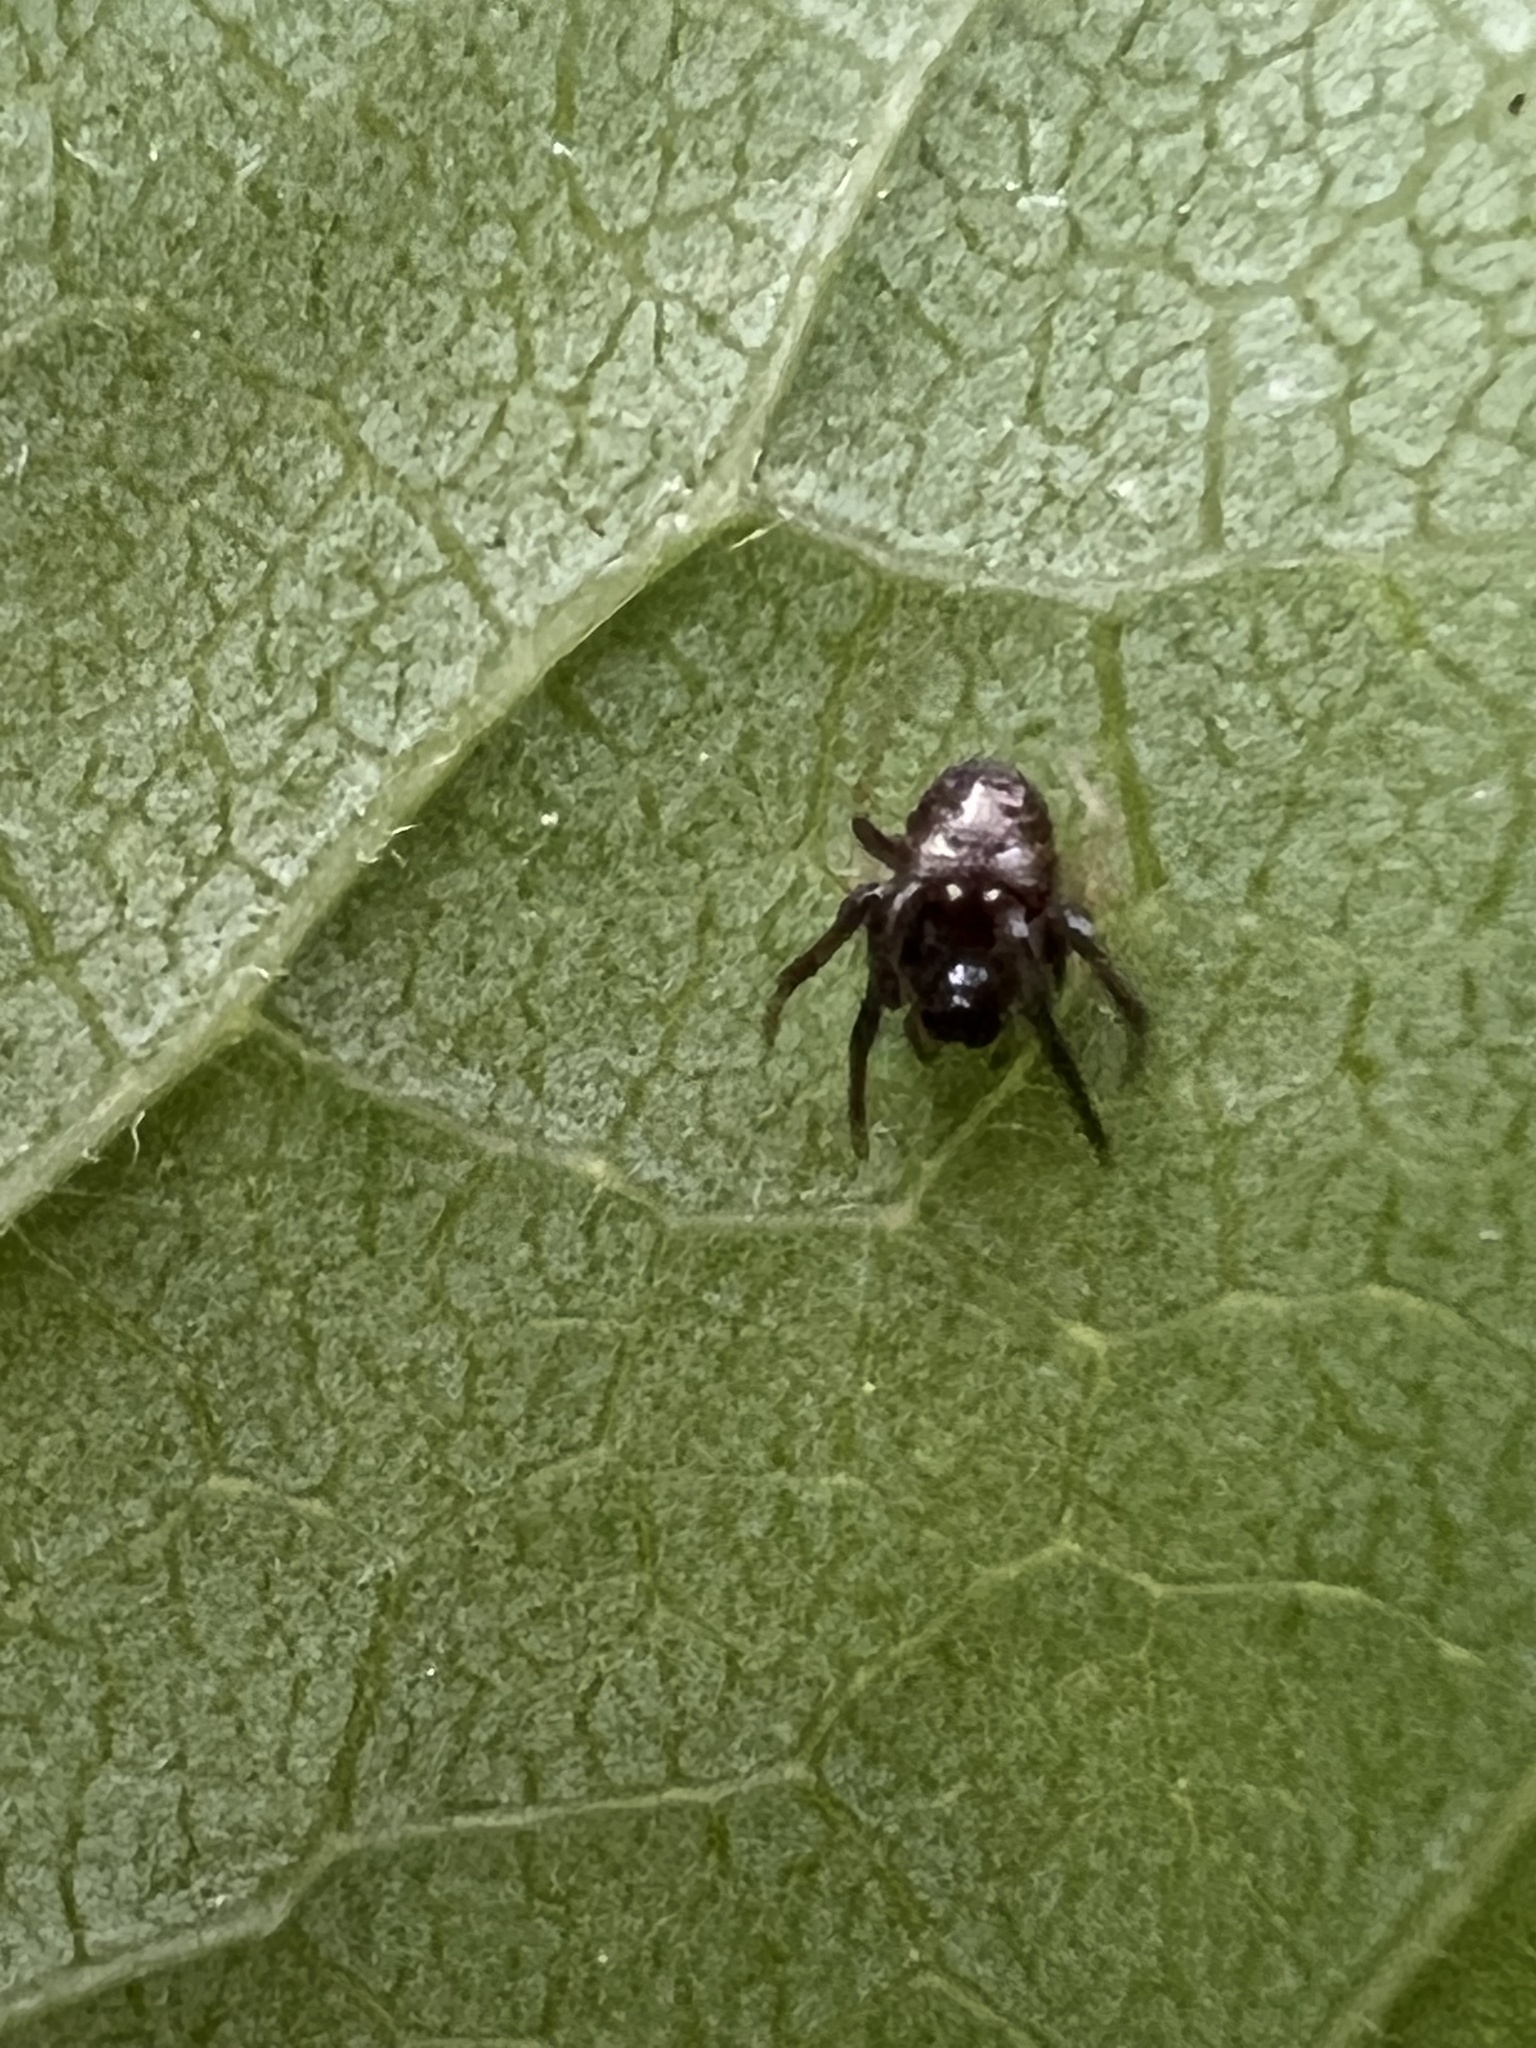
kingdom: Animalia
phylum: Arthropoda
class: Arachnida
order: Araneae
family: Araneidae
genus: Verrucosa
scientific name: Verrucosa arenata
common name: Orb weavers
